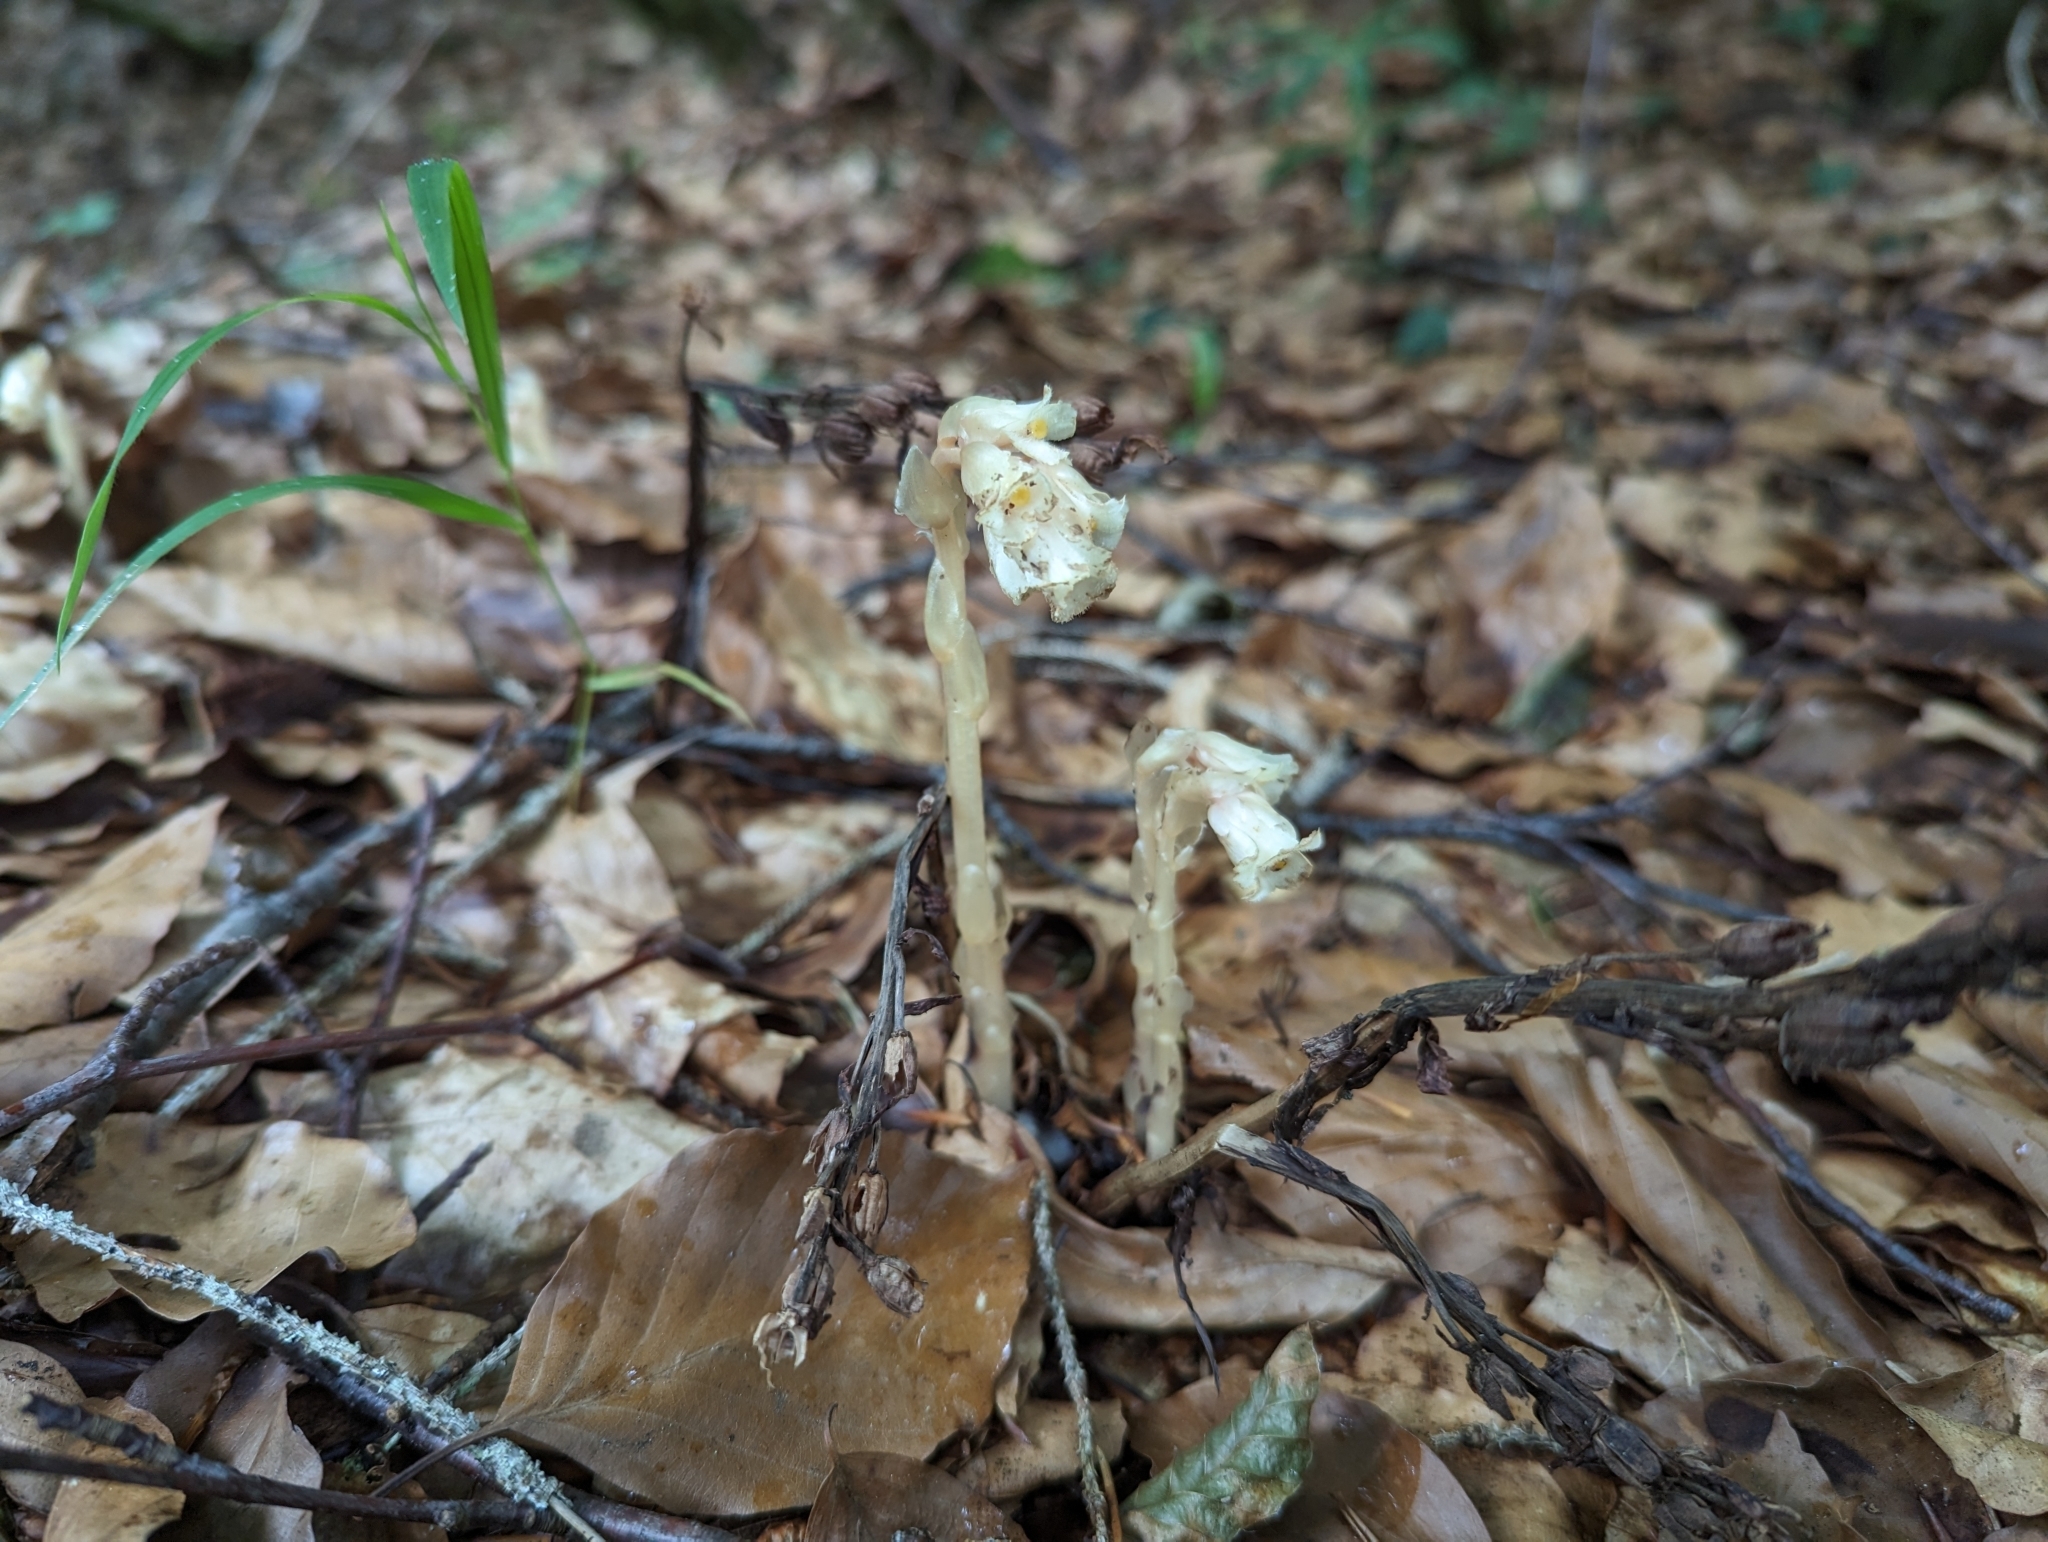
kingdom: Plantae
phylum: Tracheophyta
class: Magnoliopsida
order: Ericales
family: Ericaceae
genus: Hypopitys
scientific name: Hypopitys monotropa
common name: Yellow bird's-nest
